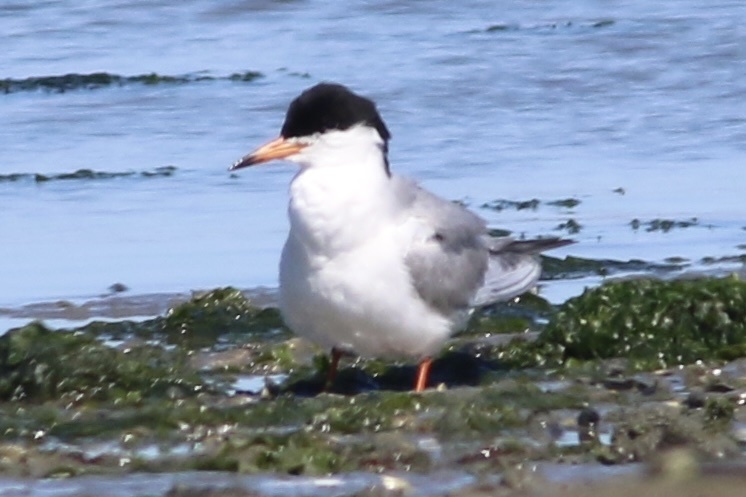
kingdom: Animalia
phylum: Chordata
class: Aves
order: Charadriiformes
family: Laridae
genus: Sterna
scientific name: Sterna forsteri
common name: Forster's tern
